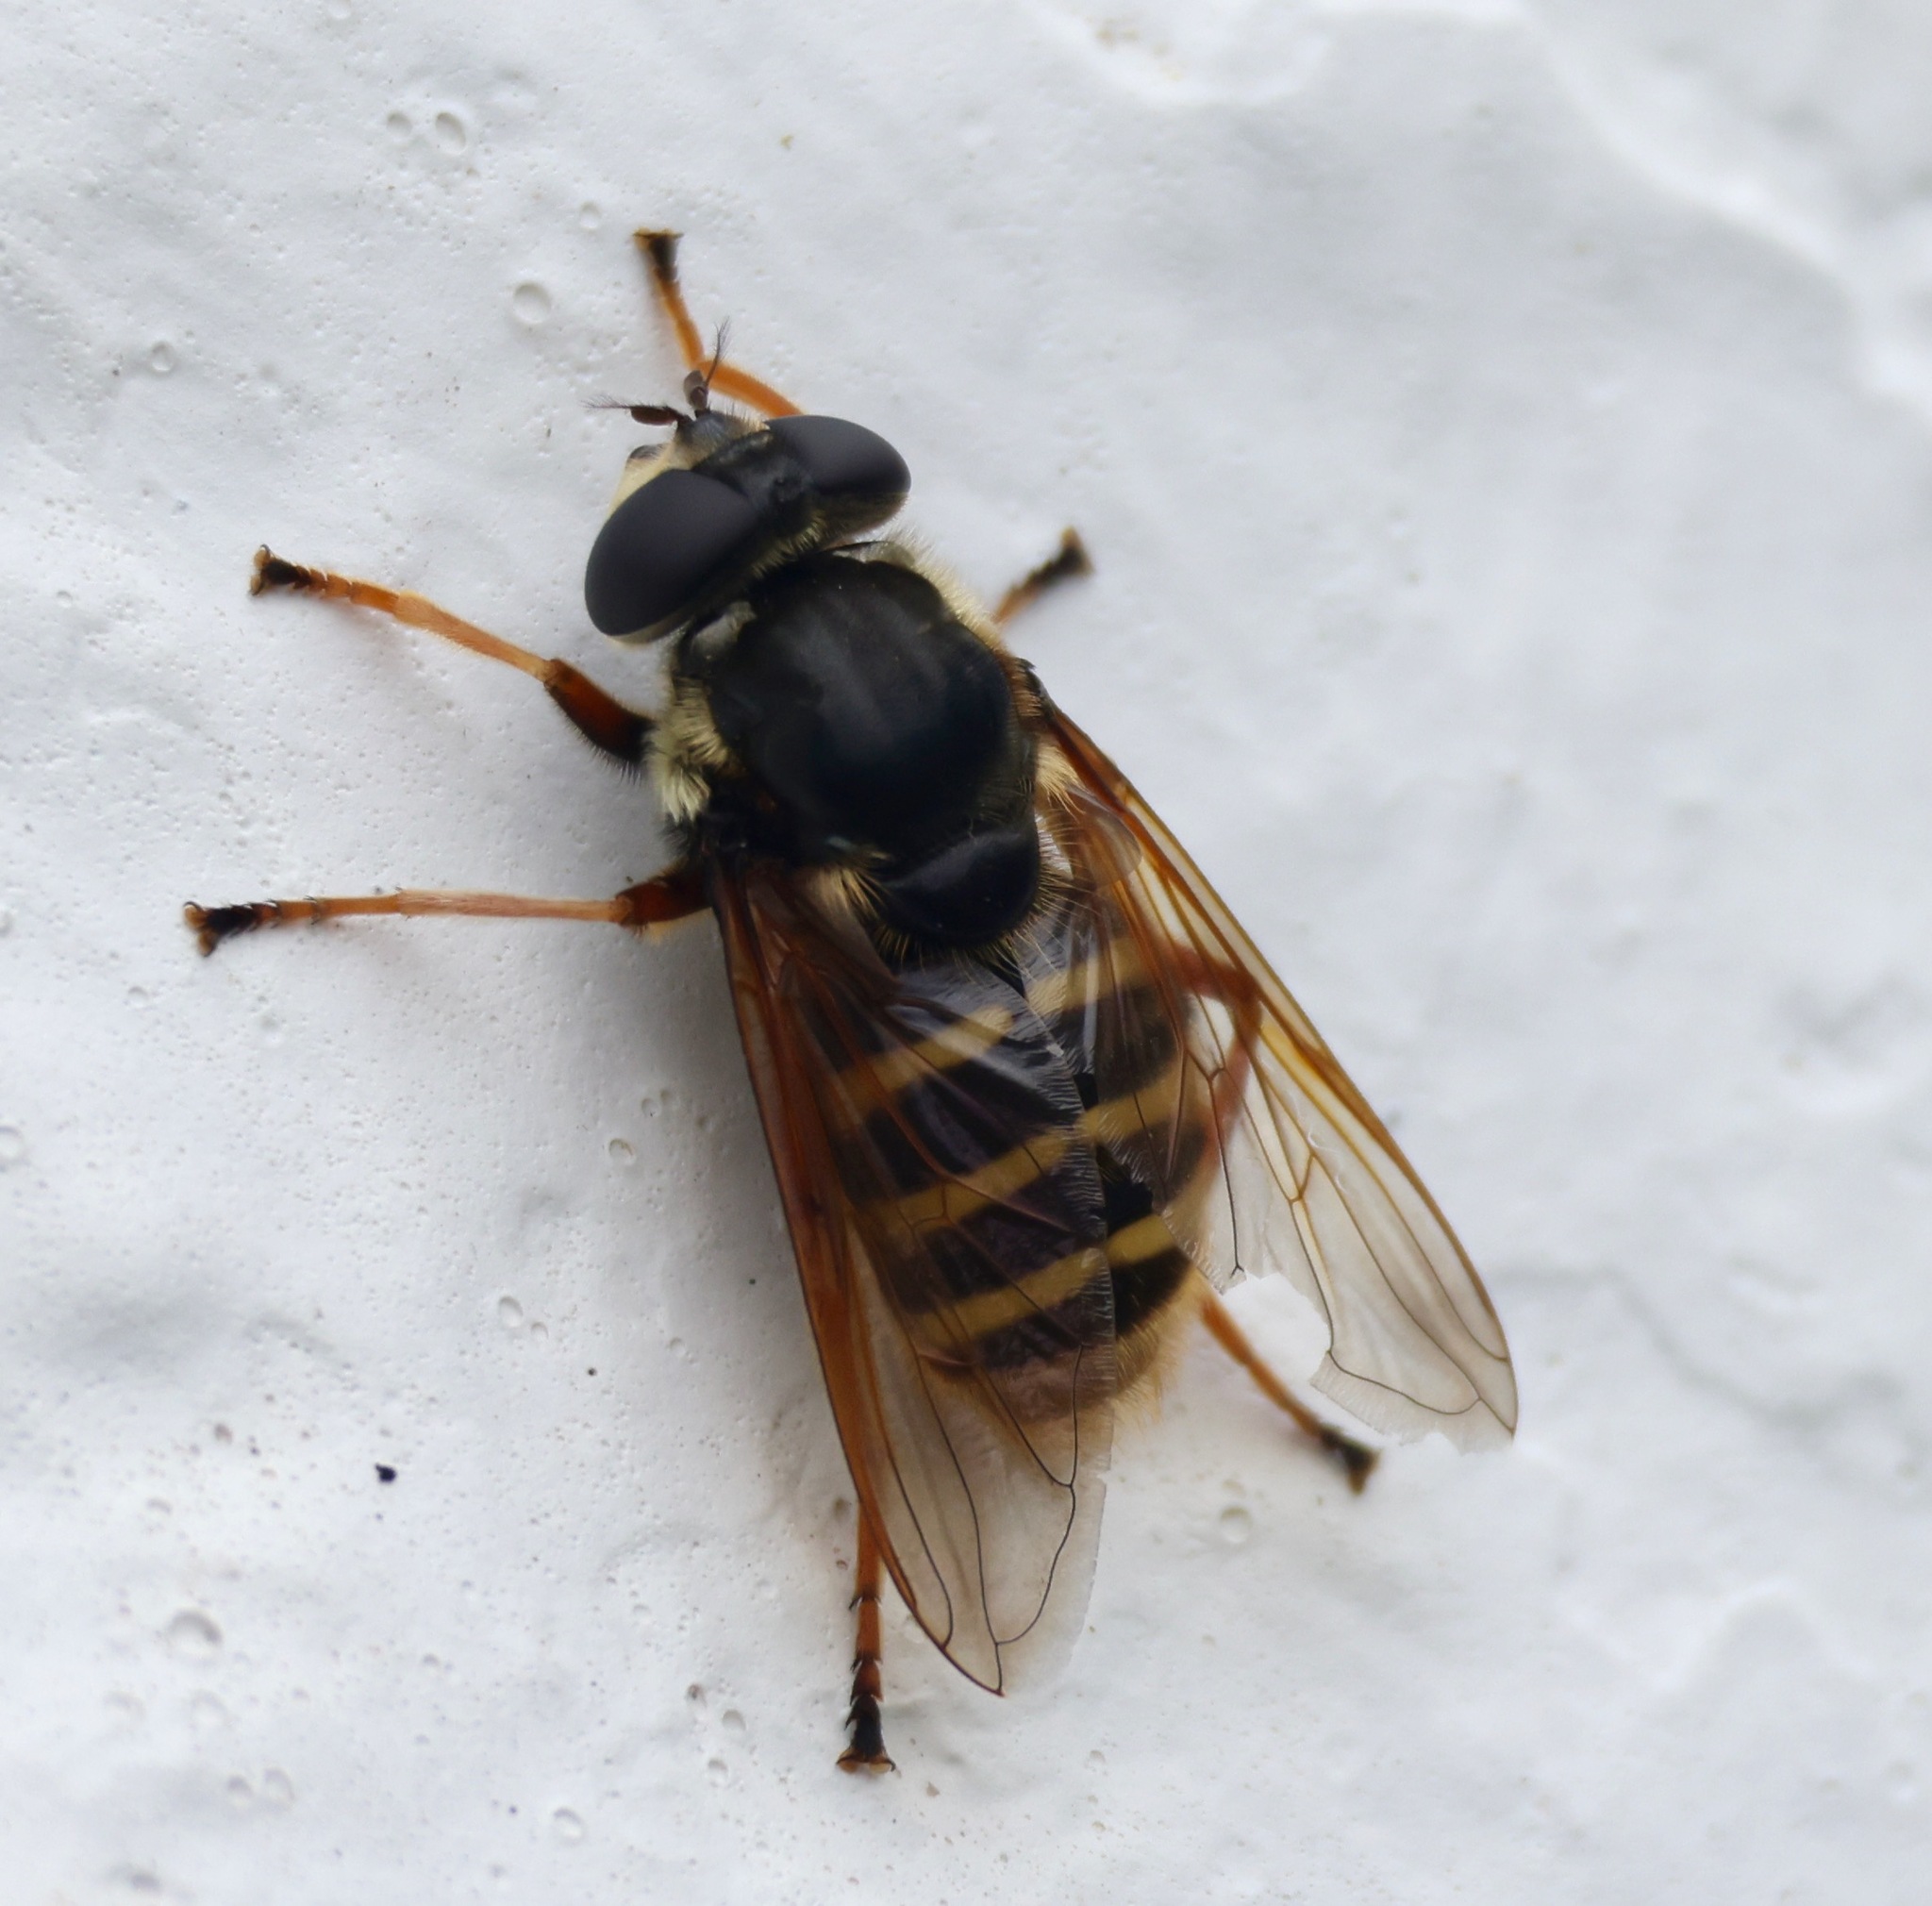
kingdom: Animalia
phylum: Arthropoda
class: Insecta
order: Diptera
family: Syrphidae
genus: Sericomyia
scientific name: Sericomyia silentis
